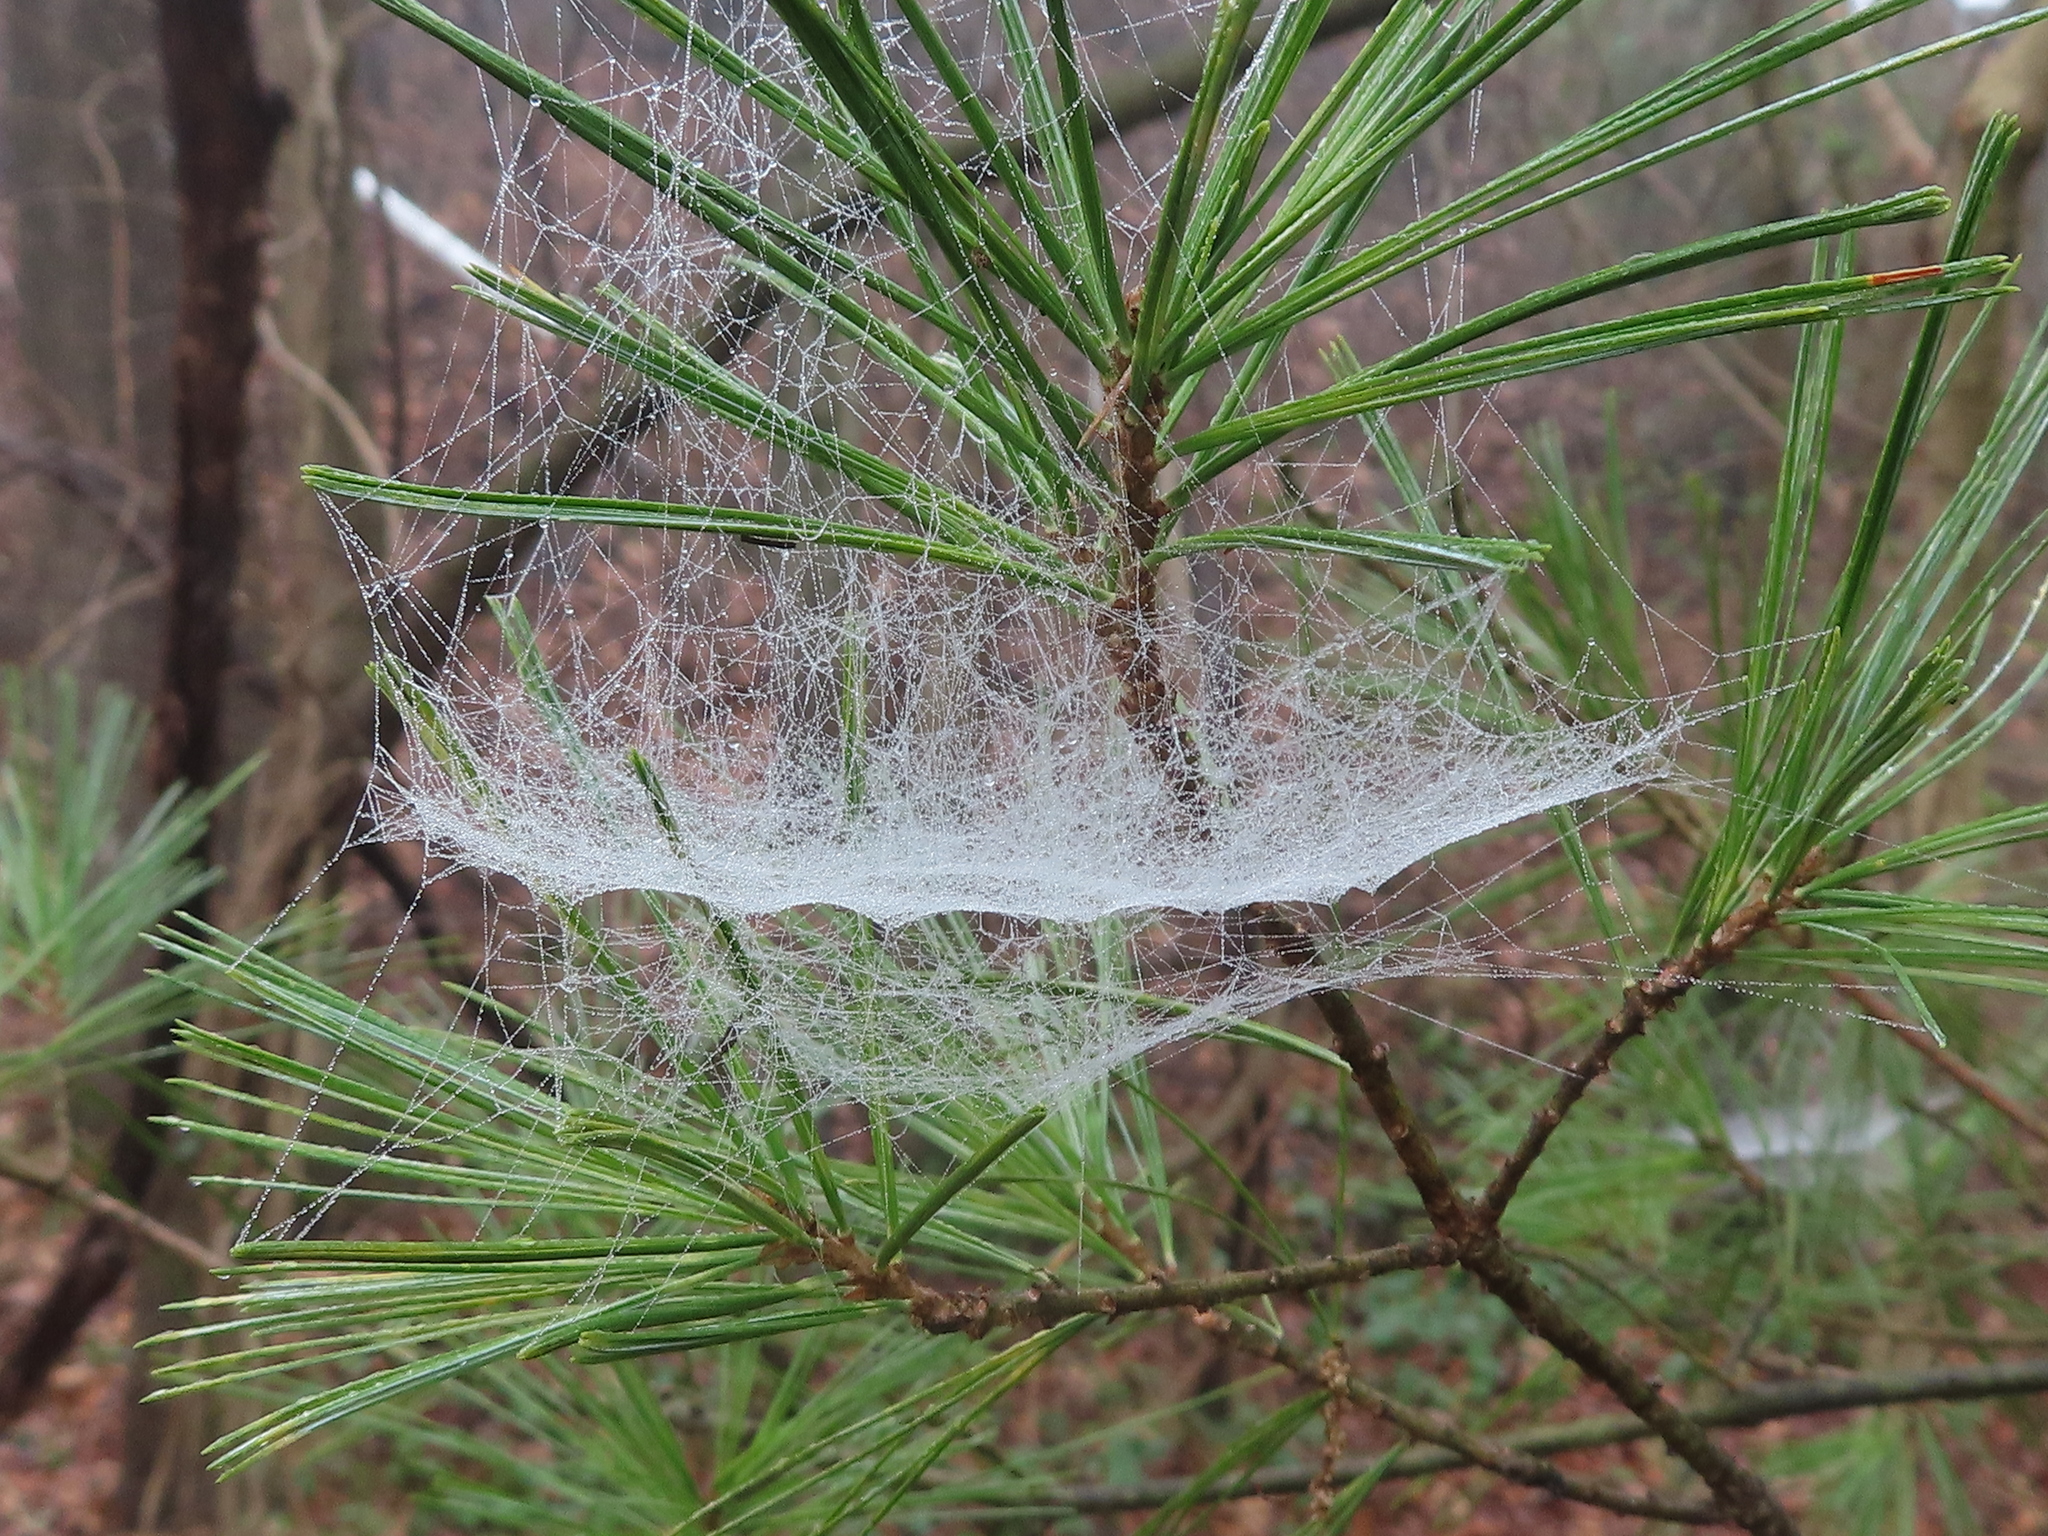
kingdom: Animalia
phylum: Arthropoda
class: Arachnida
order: Araneae
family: Linyphiidae
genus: Frontinella
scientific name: Frontinella pyramitela
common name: Bowl-and-doily spider
